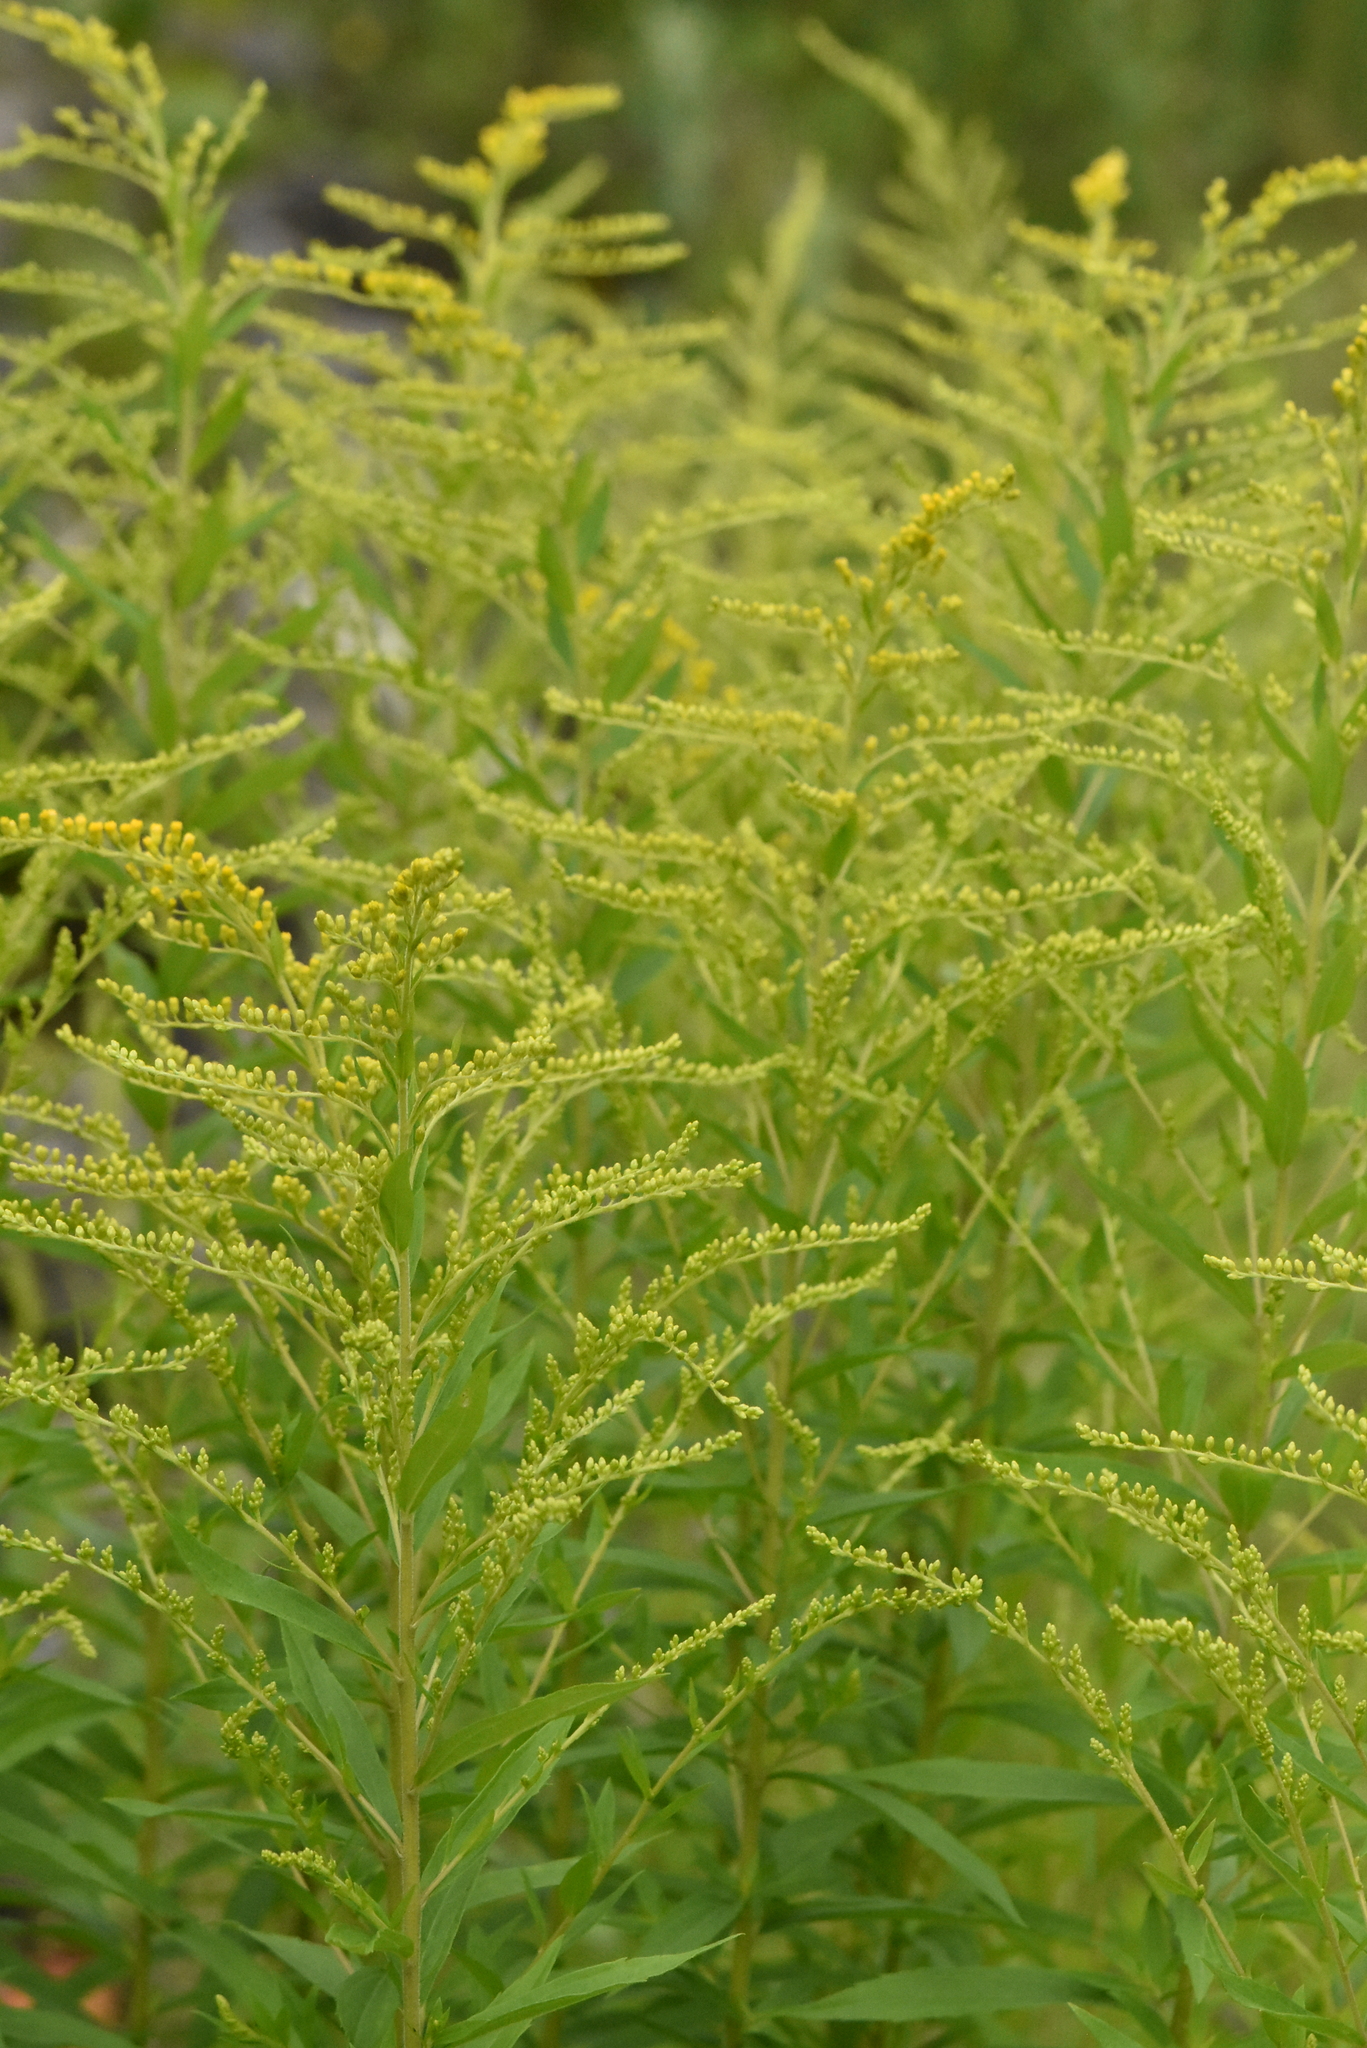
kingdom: Plantae
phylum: Tracheophyta
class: Magnoliopsida
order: Asterales
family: Asteraceae
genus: Solidago
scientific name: Solidago canadensis
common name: Canada goldenrod
